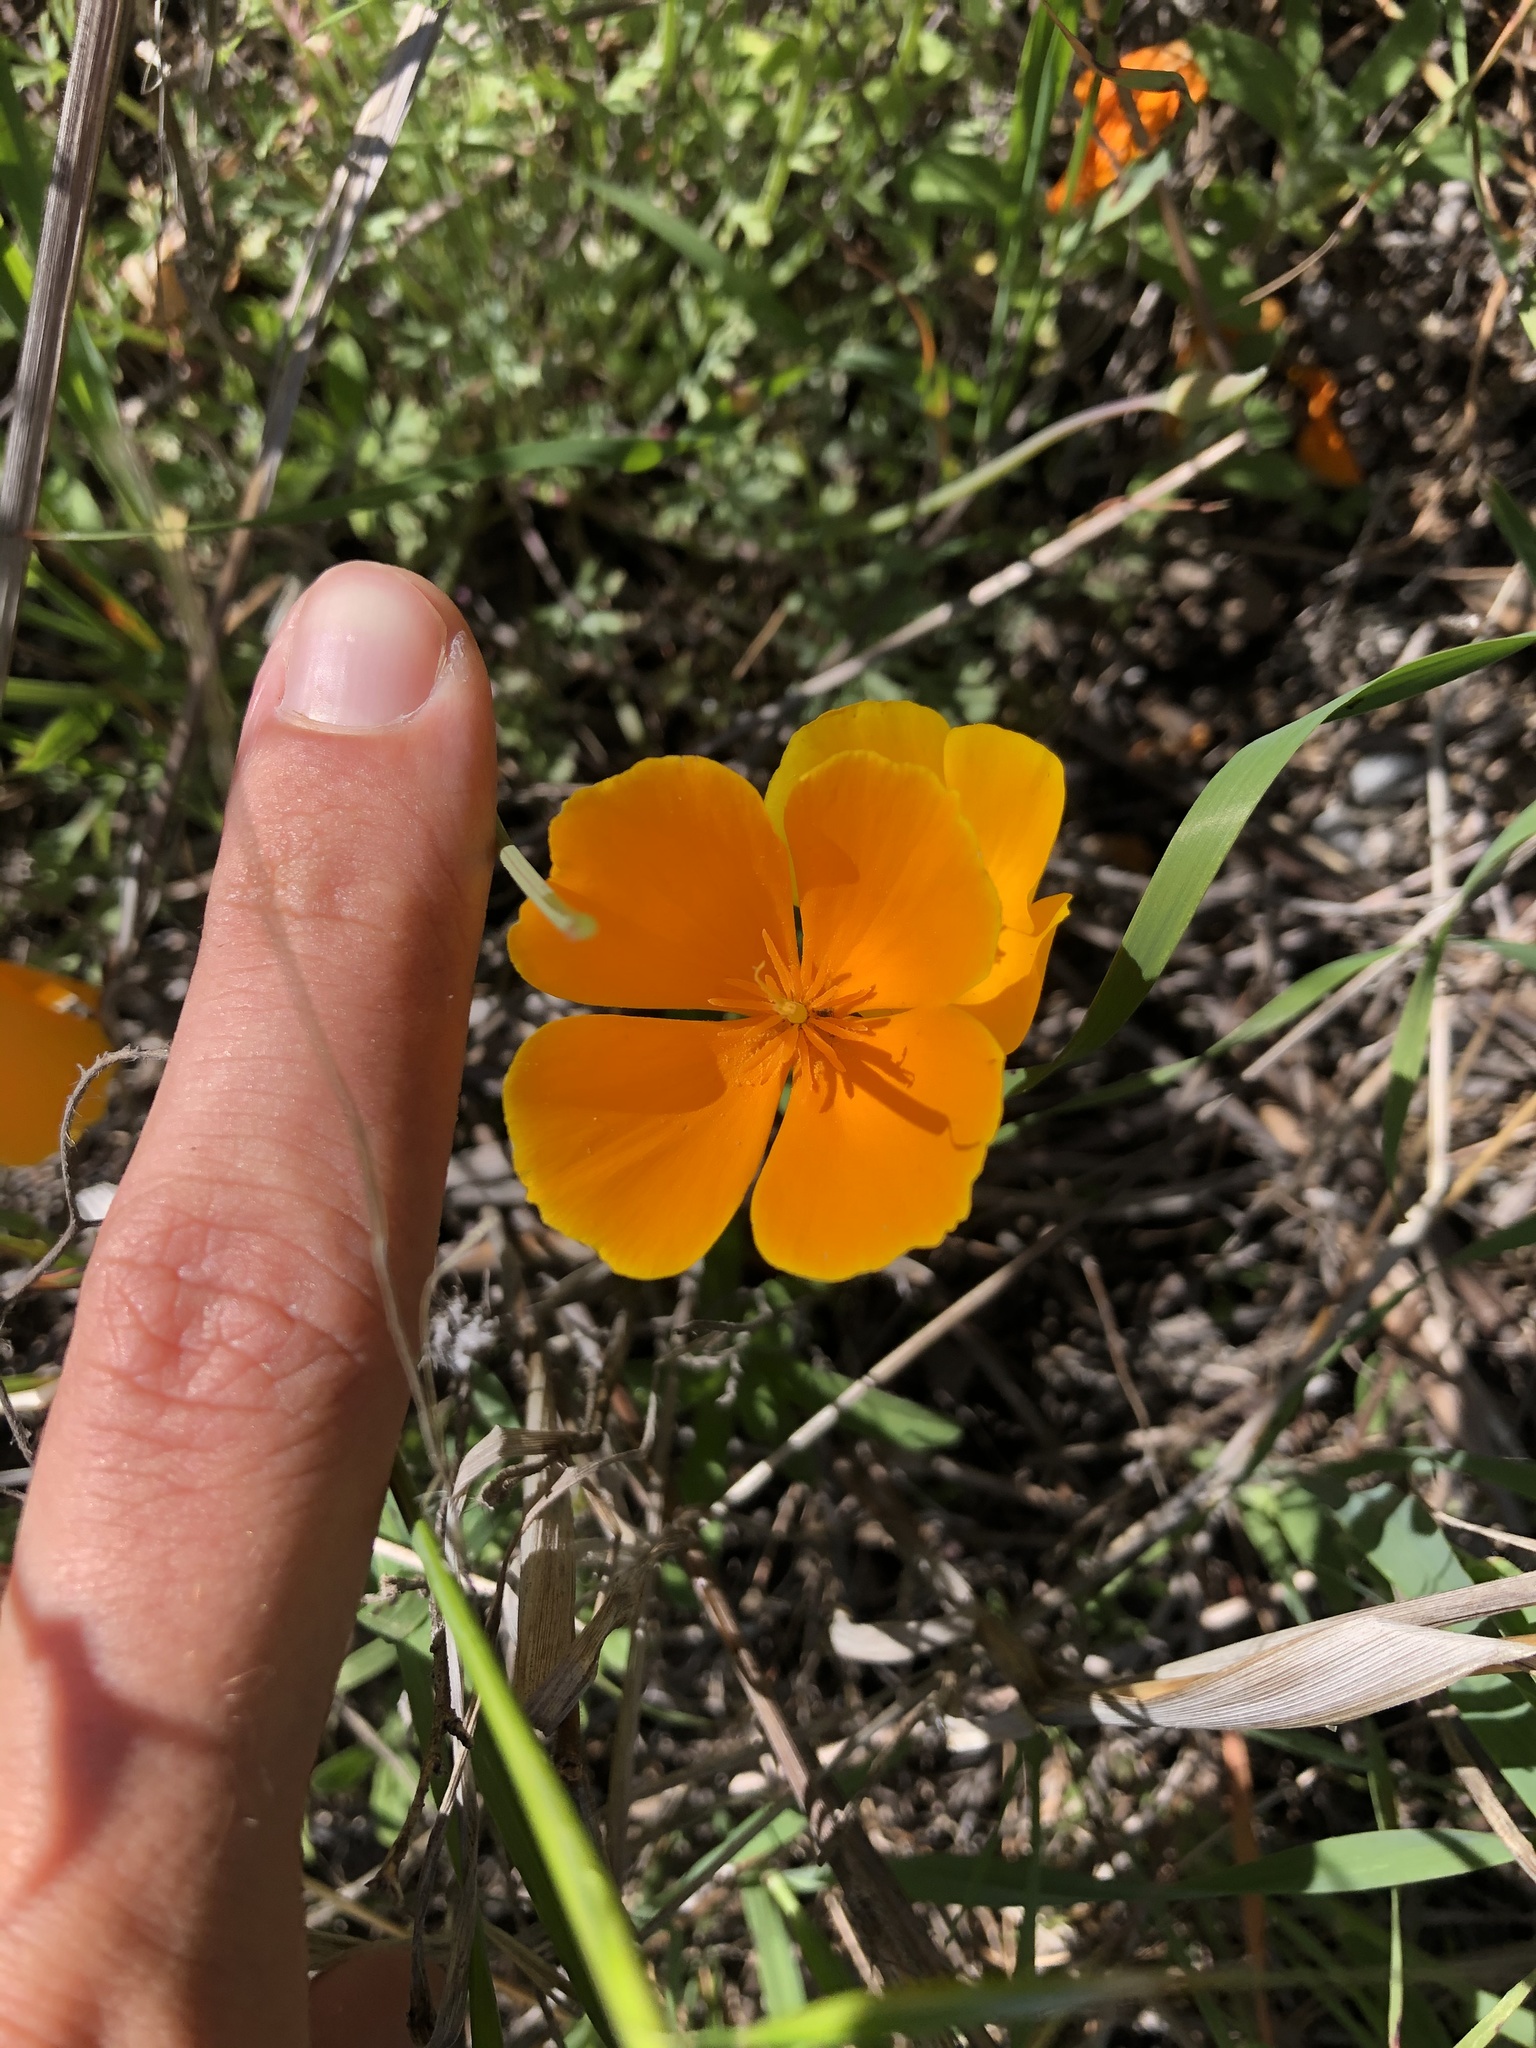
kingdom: Plantae
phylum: Tracheophyta
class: Magnoliopsida
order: Ranunculales
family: Papaveraceae
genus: Eschscholzia
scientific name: Eschscholzia caespitosa
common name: Tufted california-poppy
